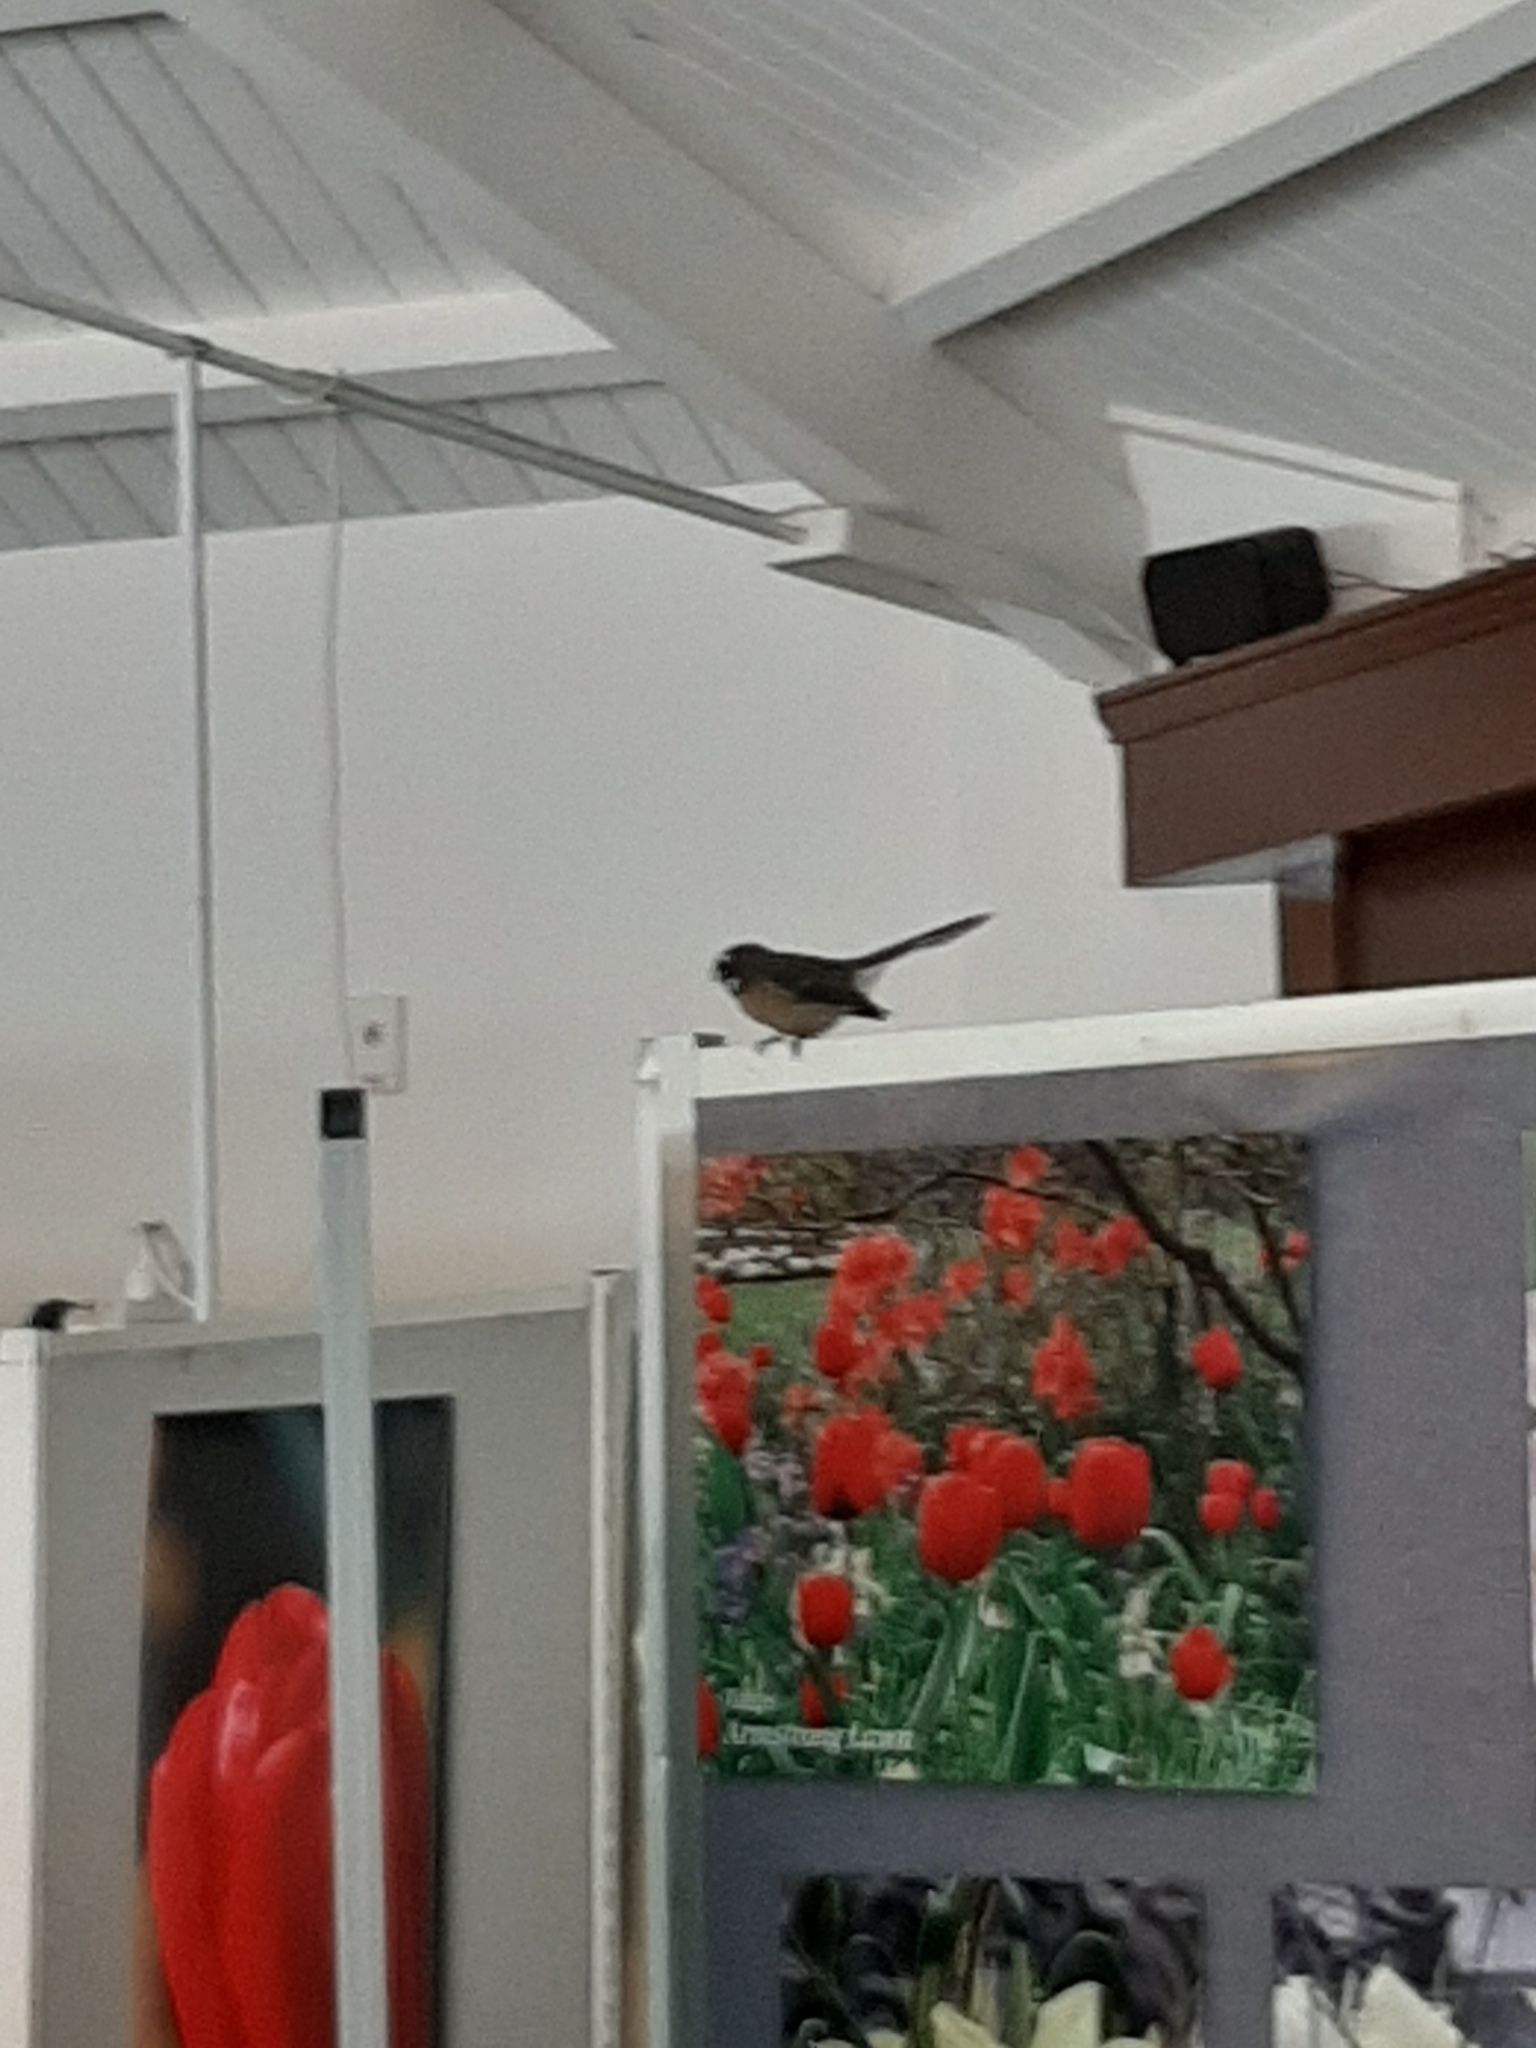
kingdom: Animalia
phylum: Chordata
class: Aves
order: Passeriformes
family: Rhipiduridae
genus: Rhipidura
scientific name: Rhipidura fuliginosa
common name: New zealand fantail
